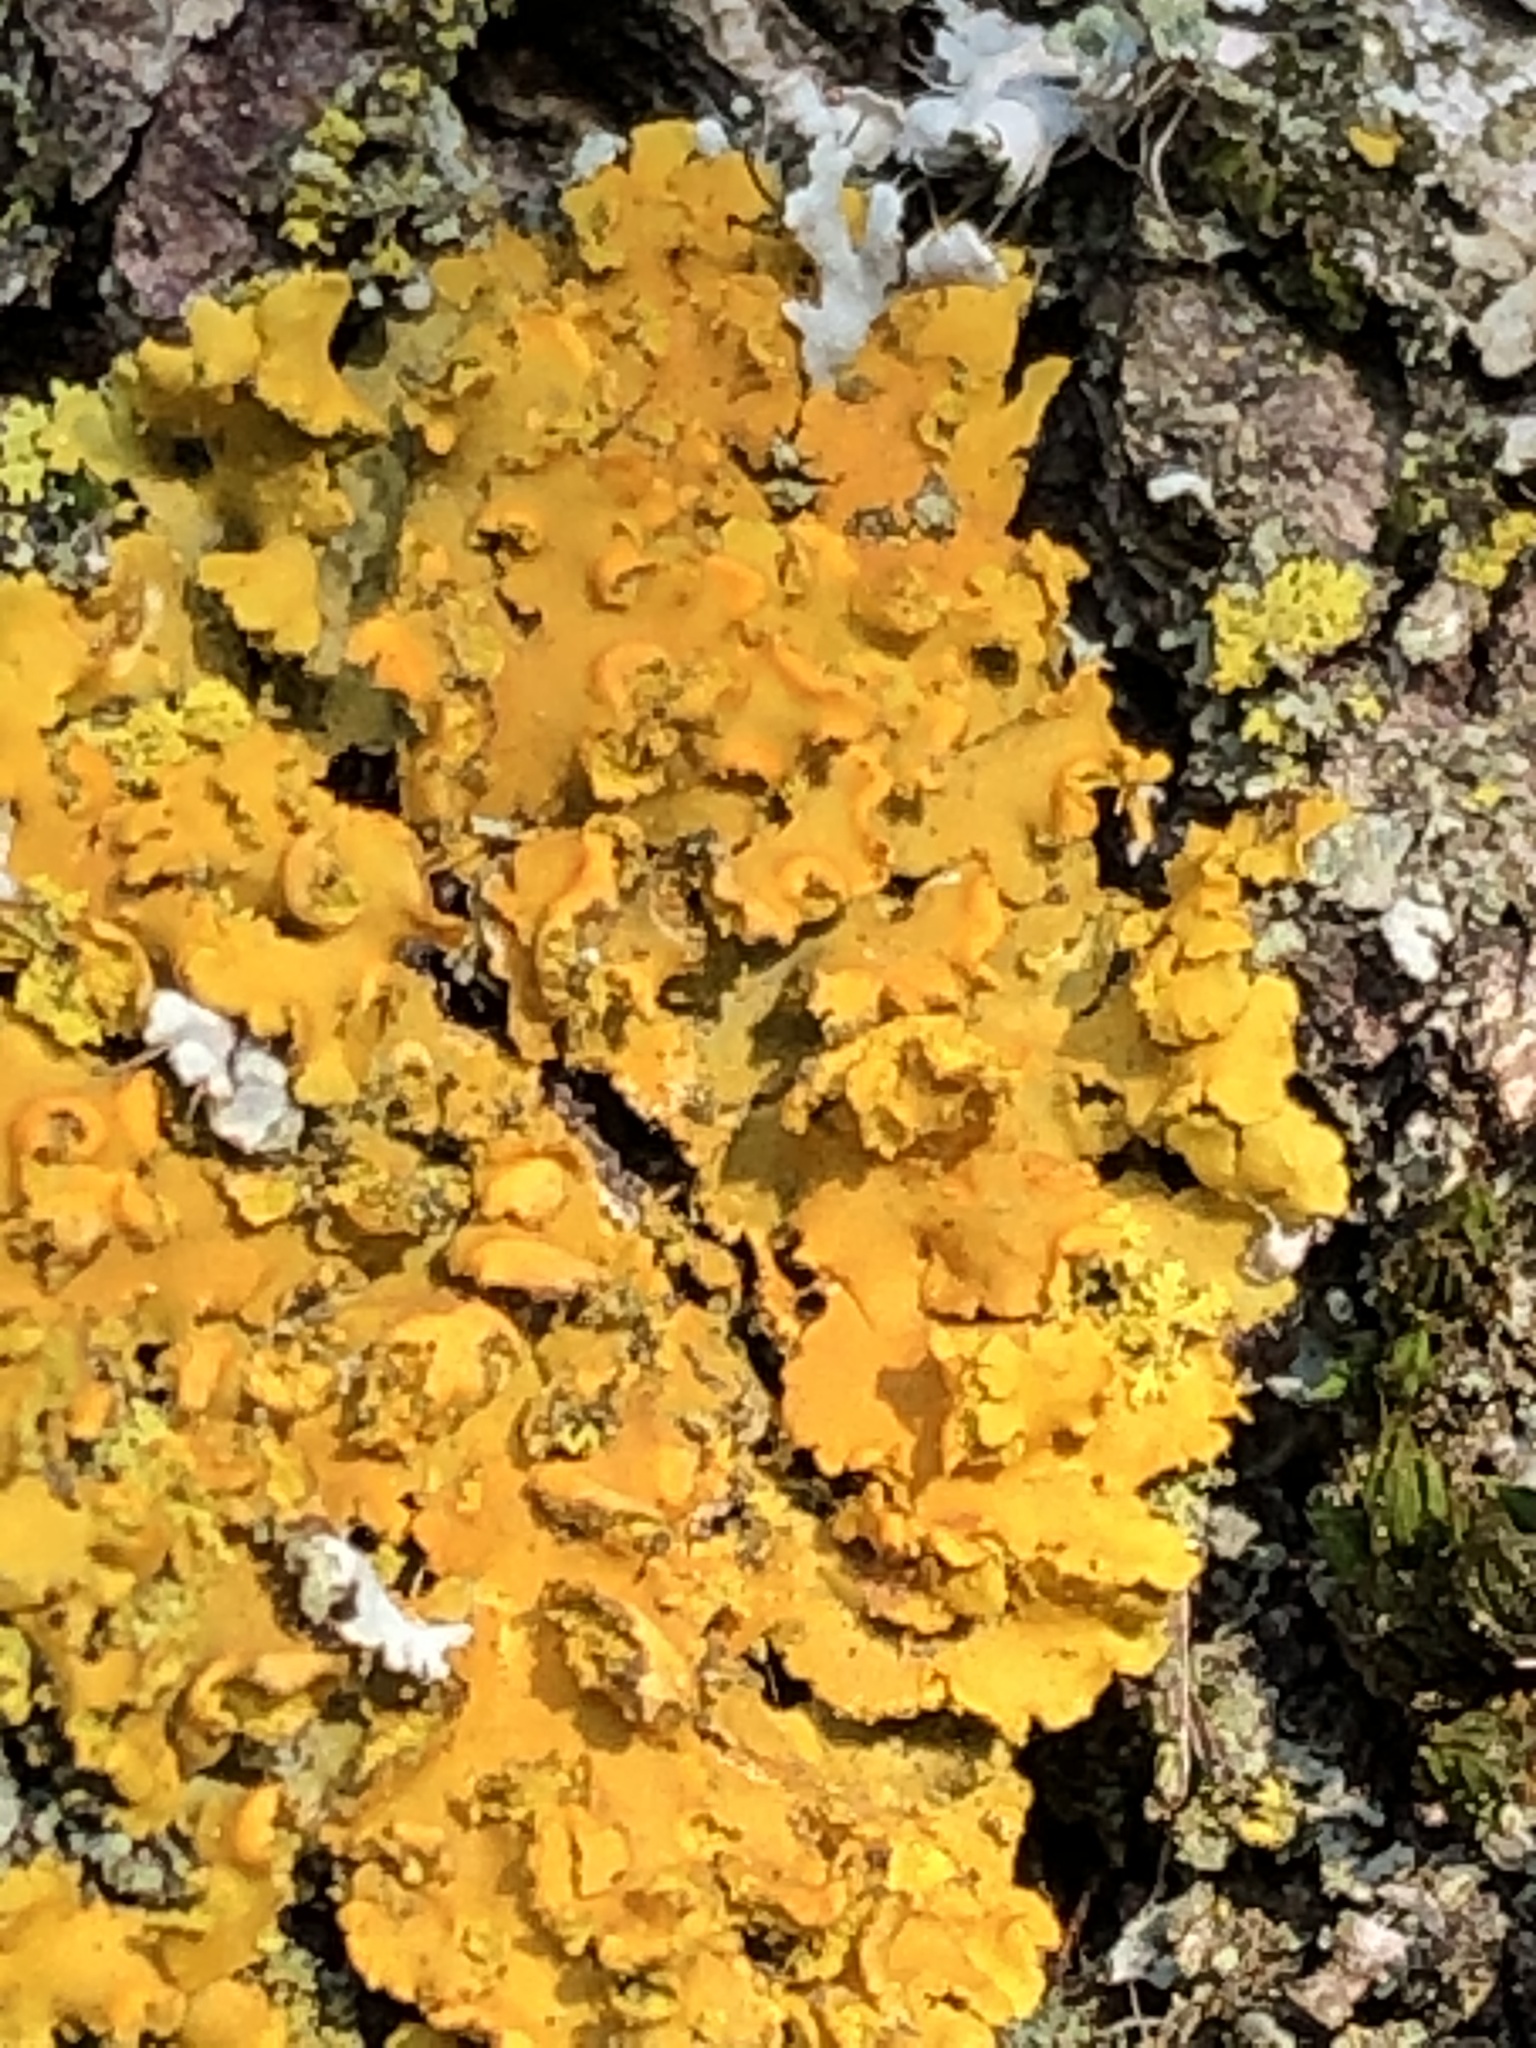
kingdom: Fungi
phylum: Ascomycota
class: Lecanoromycetes
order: Teloschistales
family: Teloschistaceae
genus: Oxneria
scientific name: Oxneria fallax
